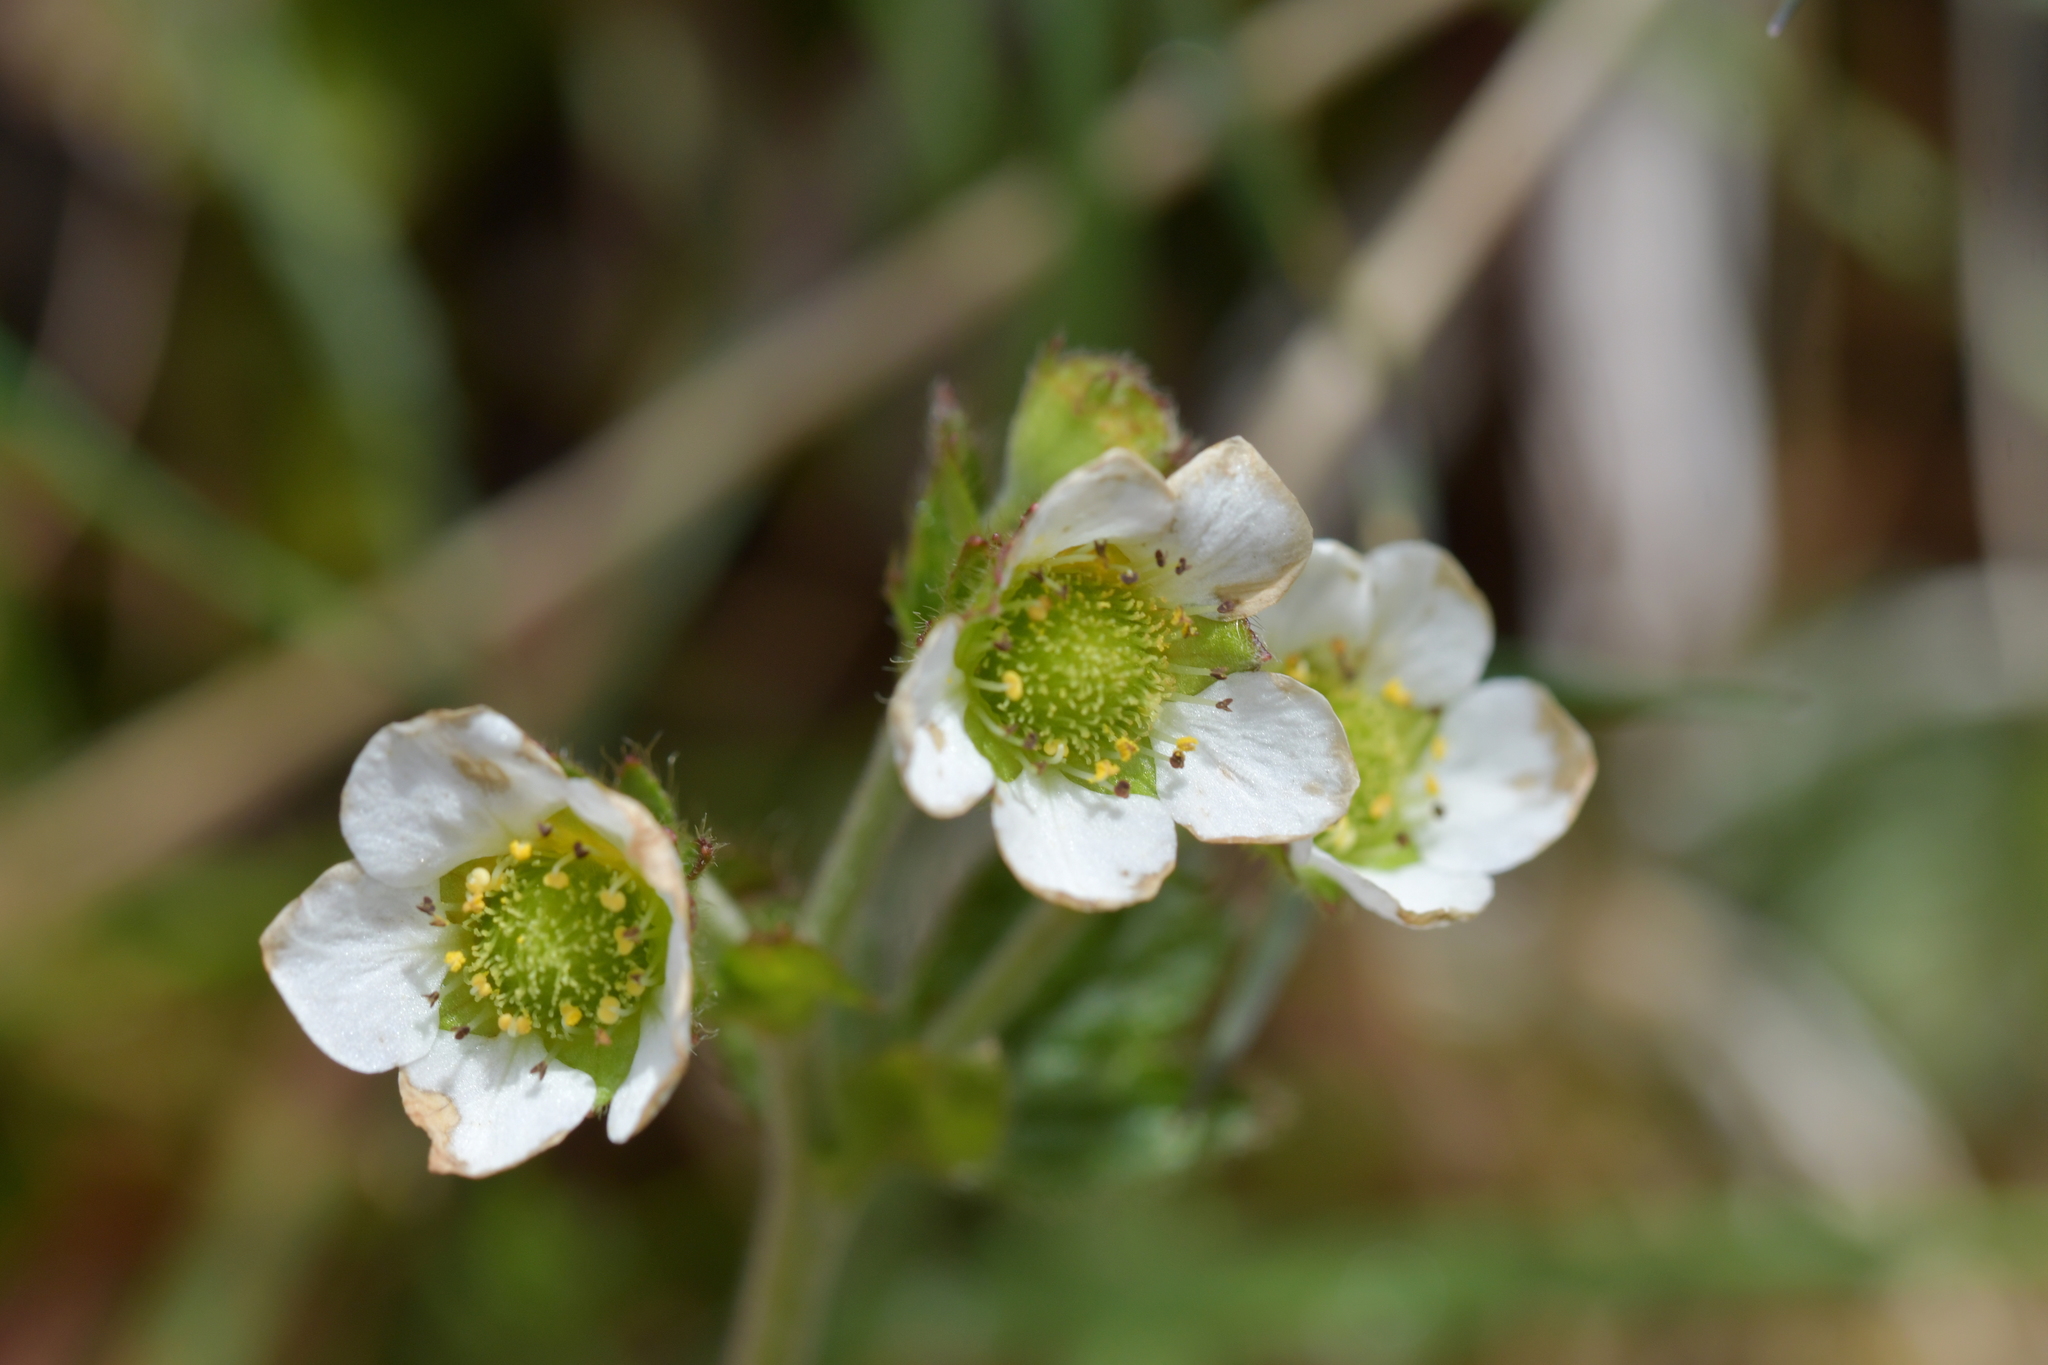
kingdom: Plantae
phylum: Tracheophyta
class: Magnoliopsida
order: Rosales
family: Rosaceae
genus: Geum
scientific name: Geum cockaynei
